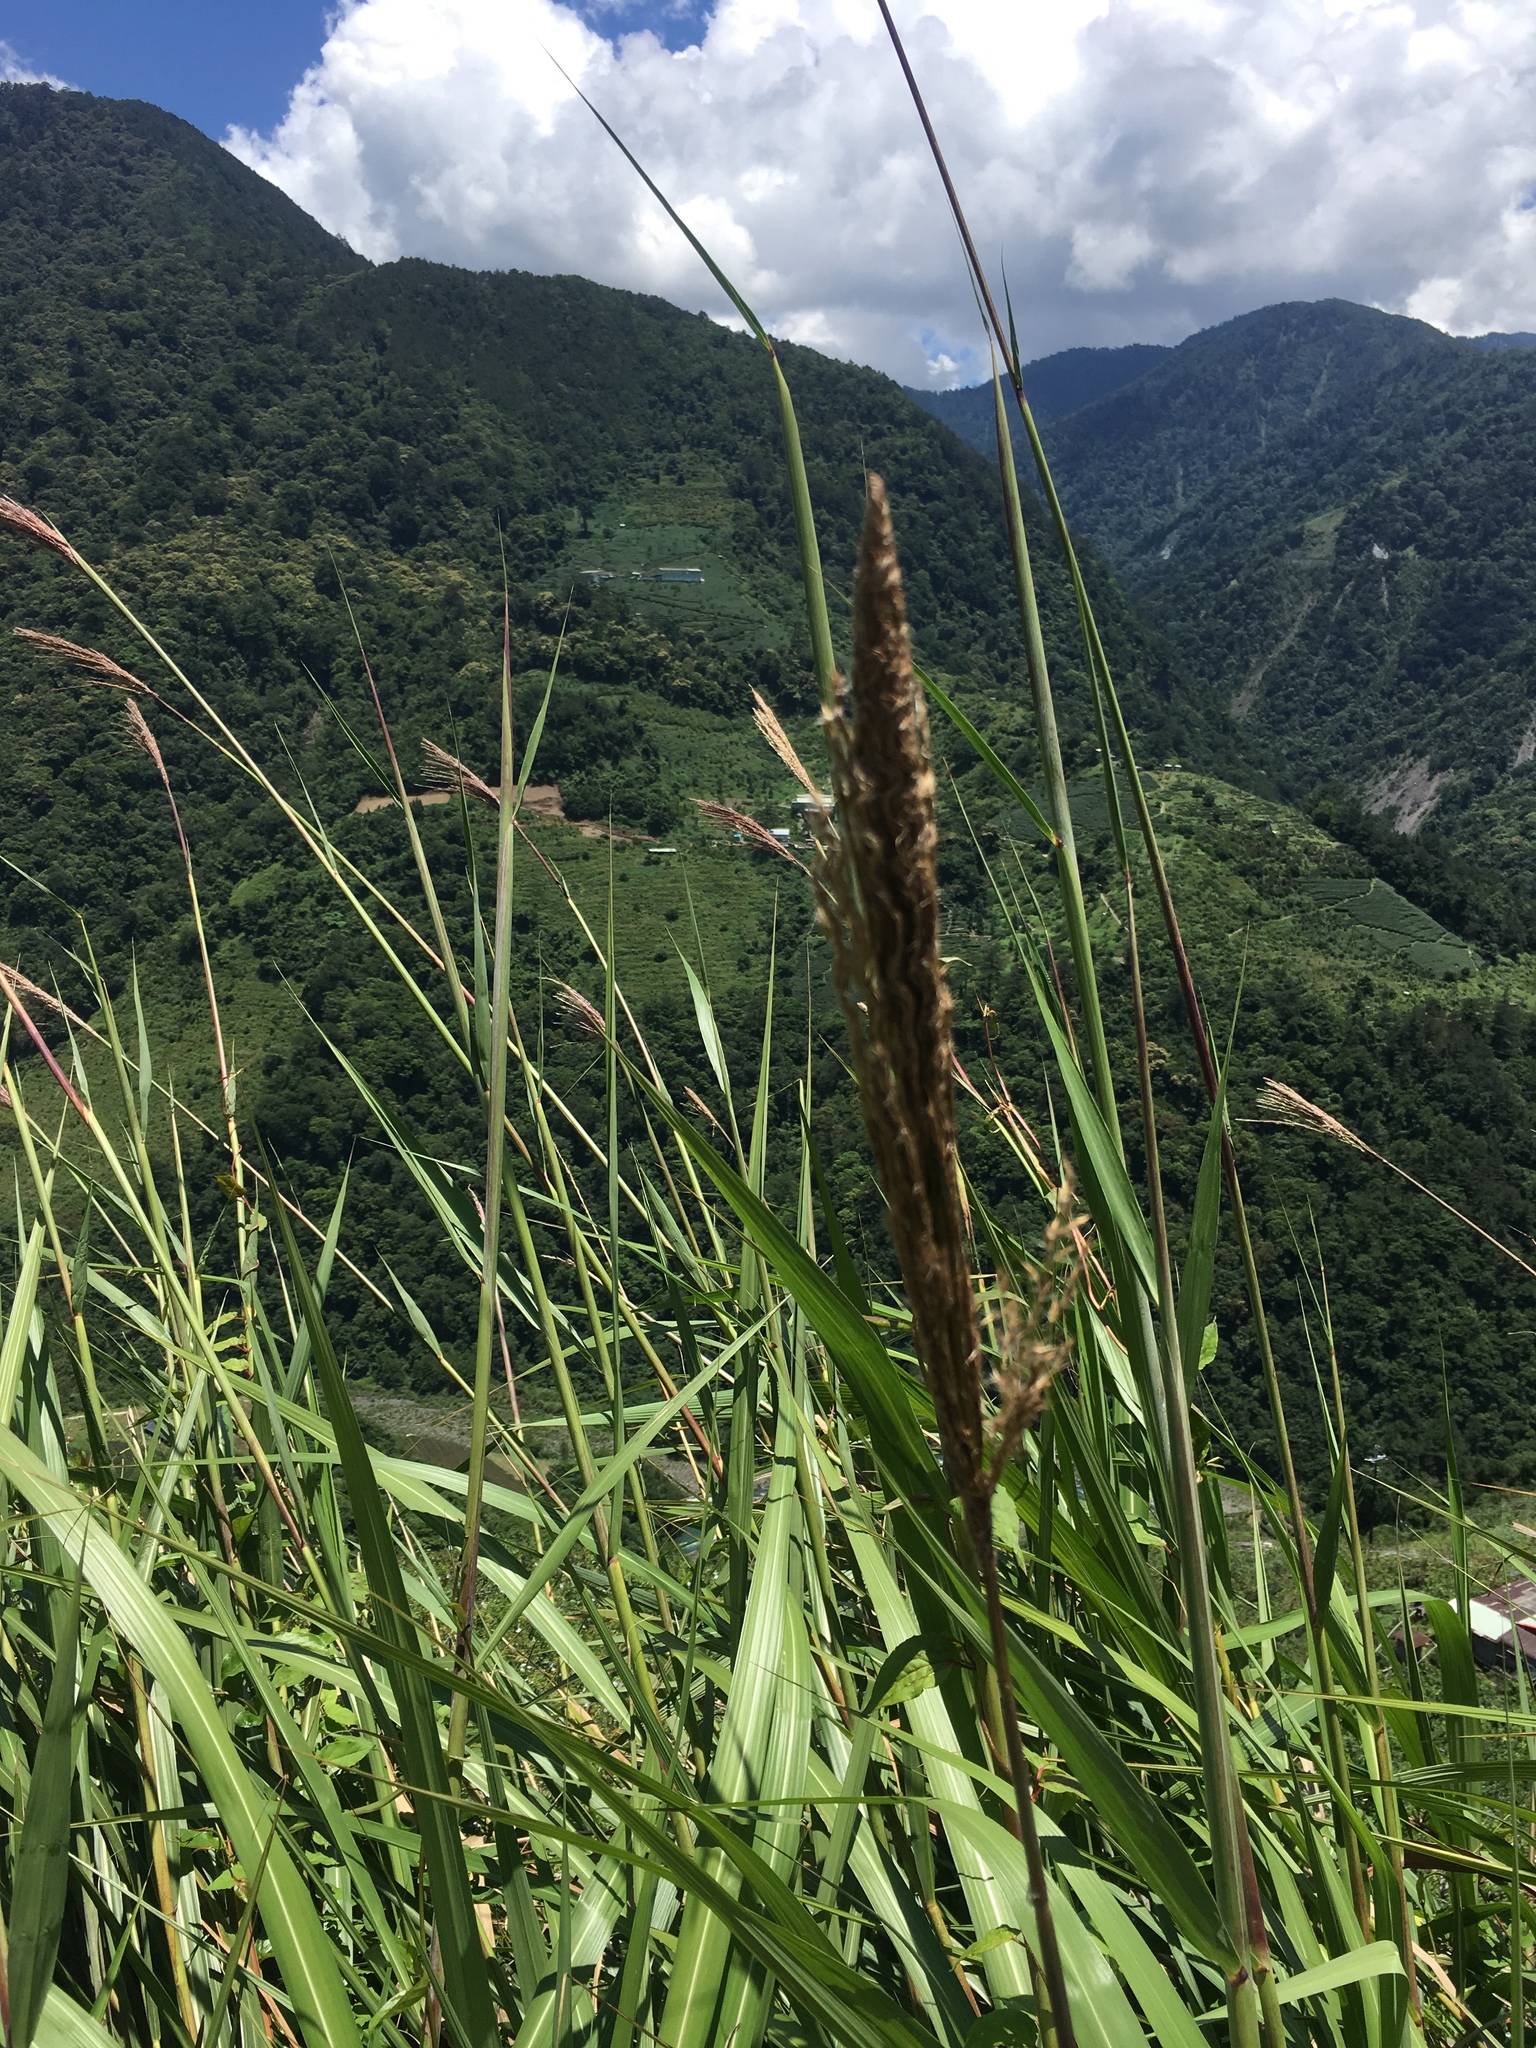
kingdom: Plantae
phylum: Tracheophyta
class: Liliopsida
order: Poales
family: Poaceae
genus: Miscanthus
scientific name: Miscanthus sinensis
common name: Chinese silvergrass
